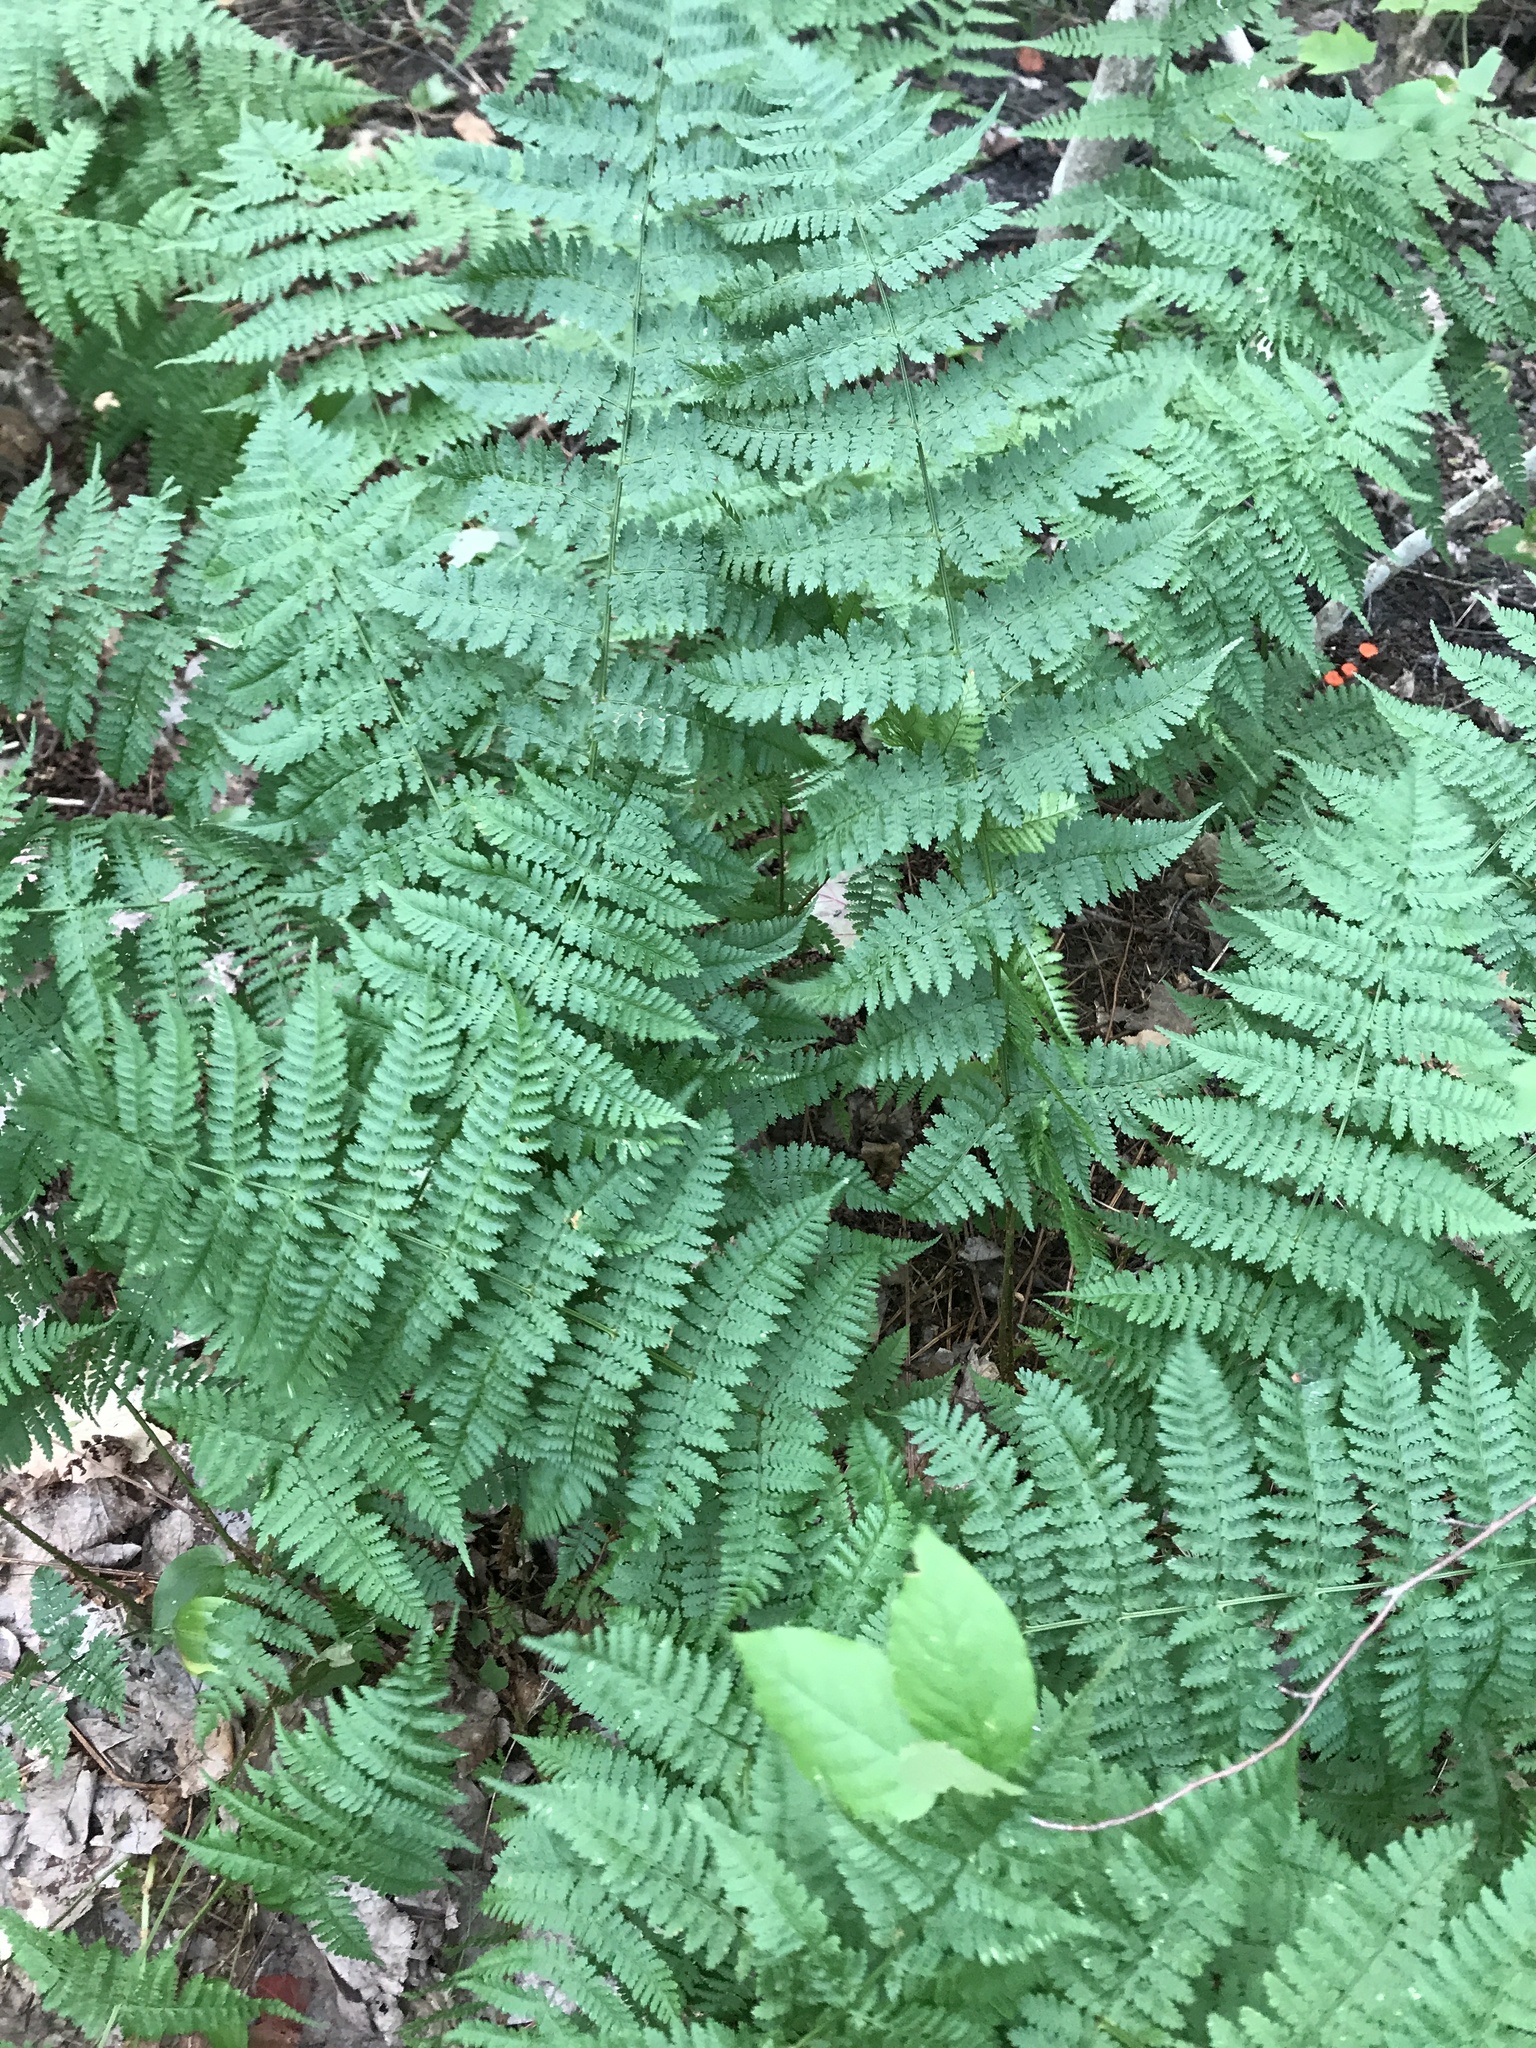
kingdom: Plantae
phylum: Tracheophyta
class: Polypodiopsida
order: Polypodiales
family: Dryopteridaceae
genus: Dryopteris
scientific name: Dryopteris intermedia
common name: Evergreen wood fern
